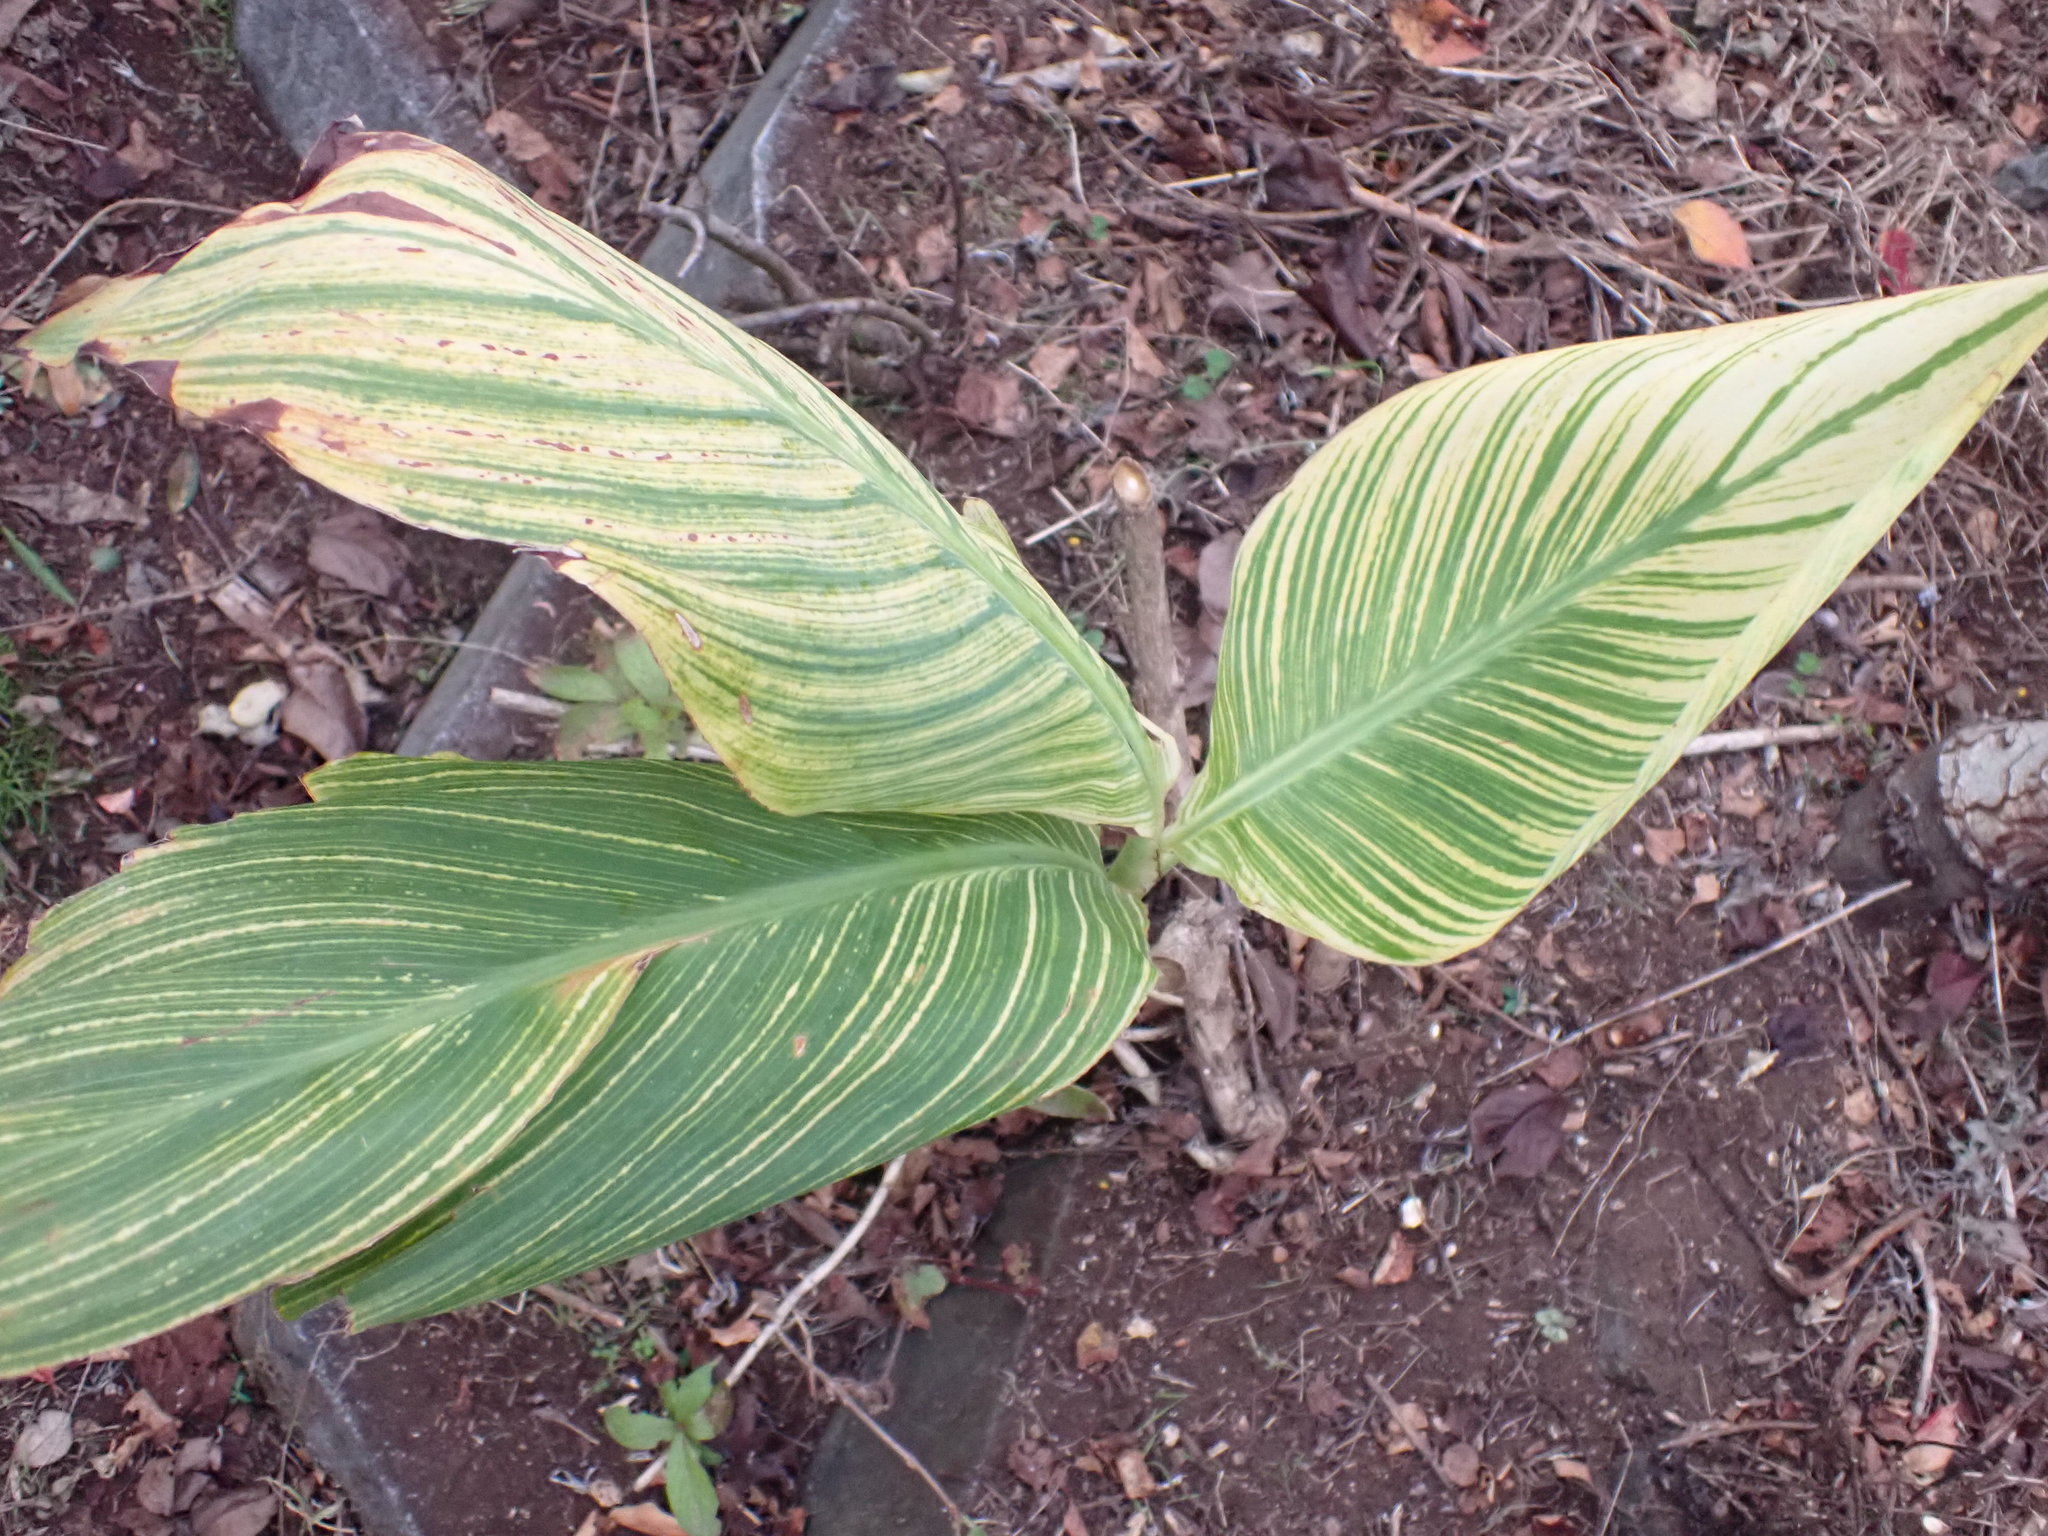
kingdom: Plantae
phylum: Tracheophyta
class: Liliopsida
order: Zingiberales
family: Cannaceae
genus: Canna
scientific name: Canna indica
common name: Indian shot
